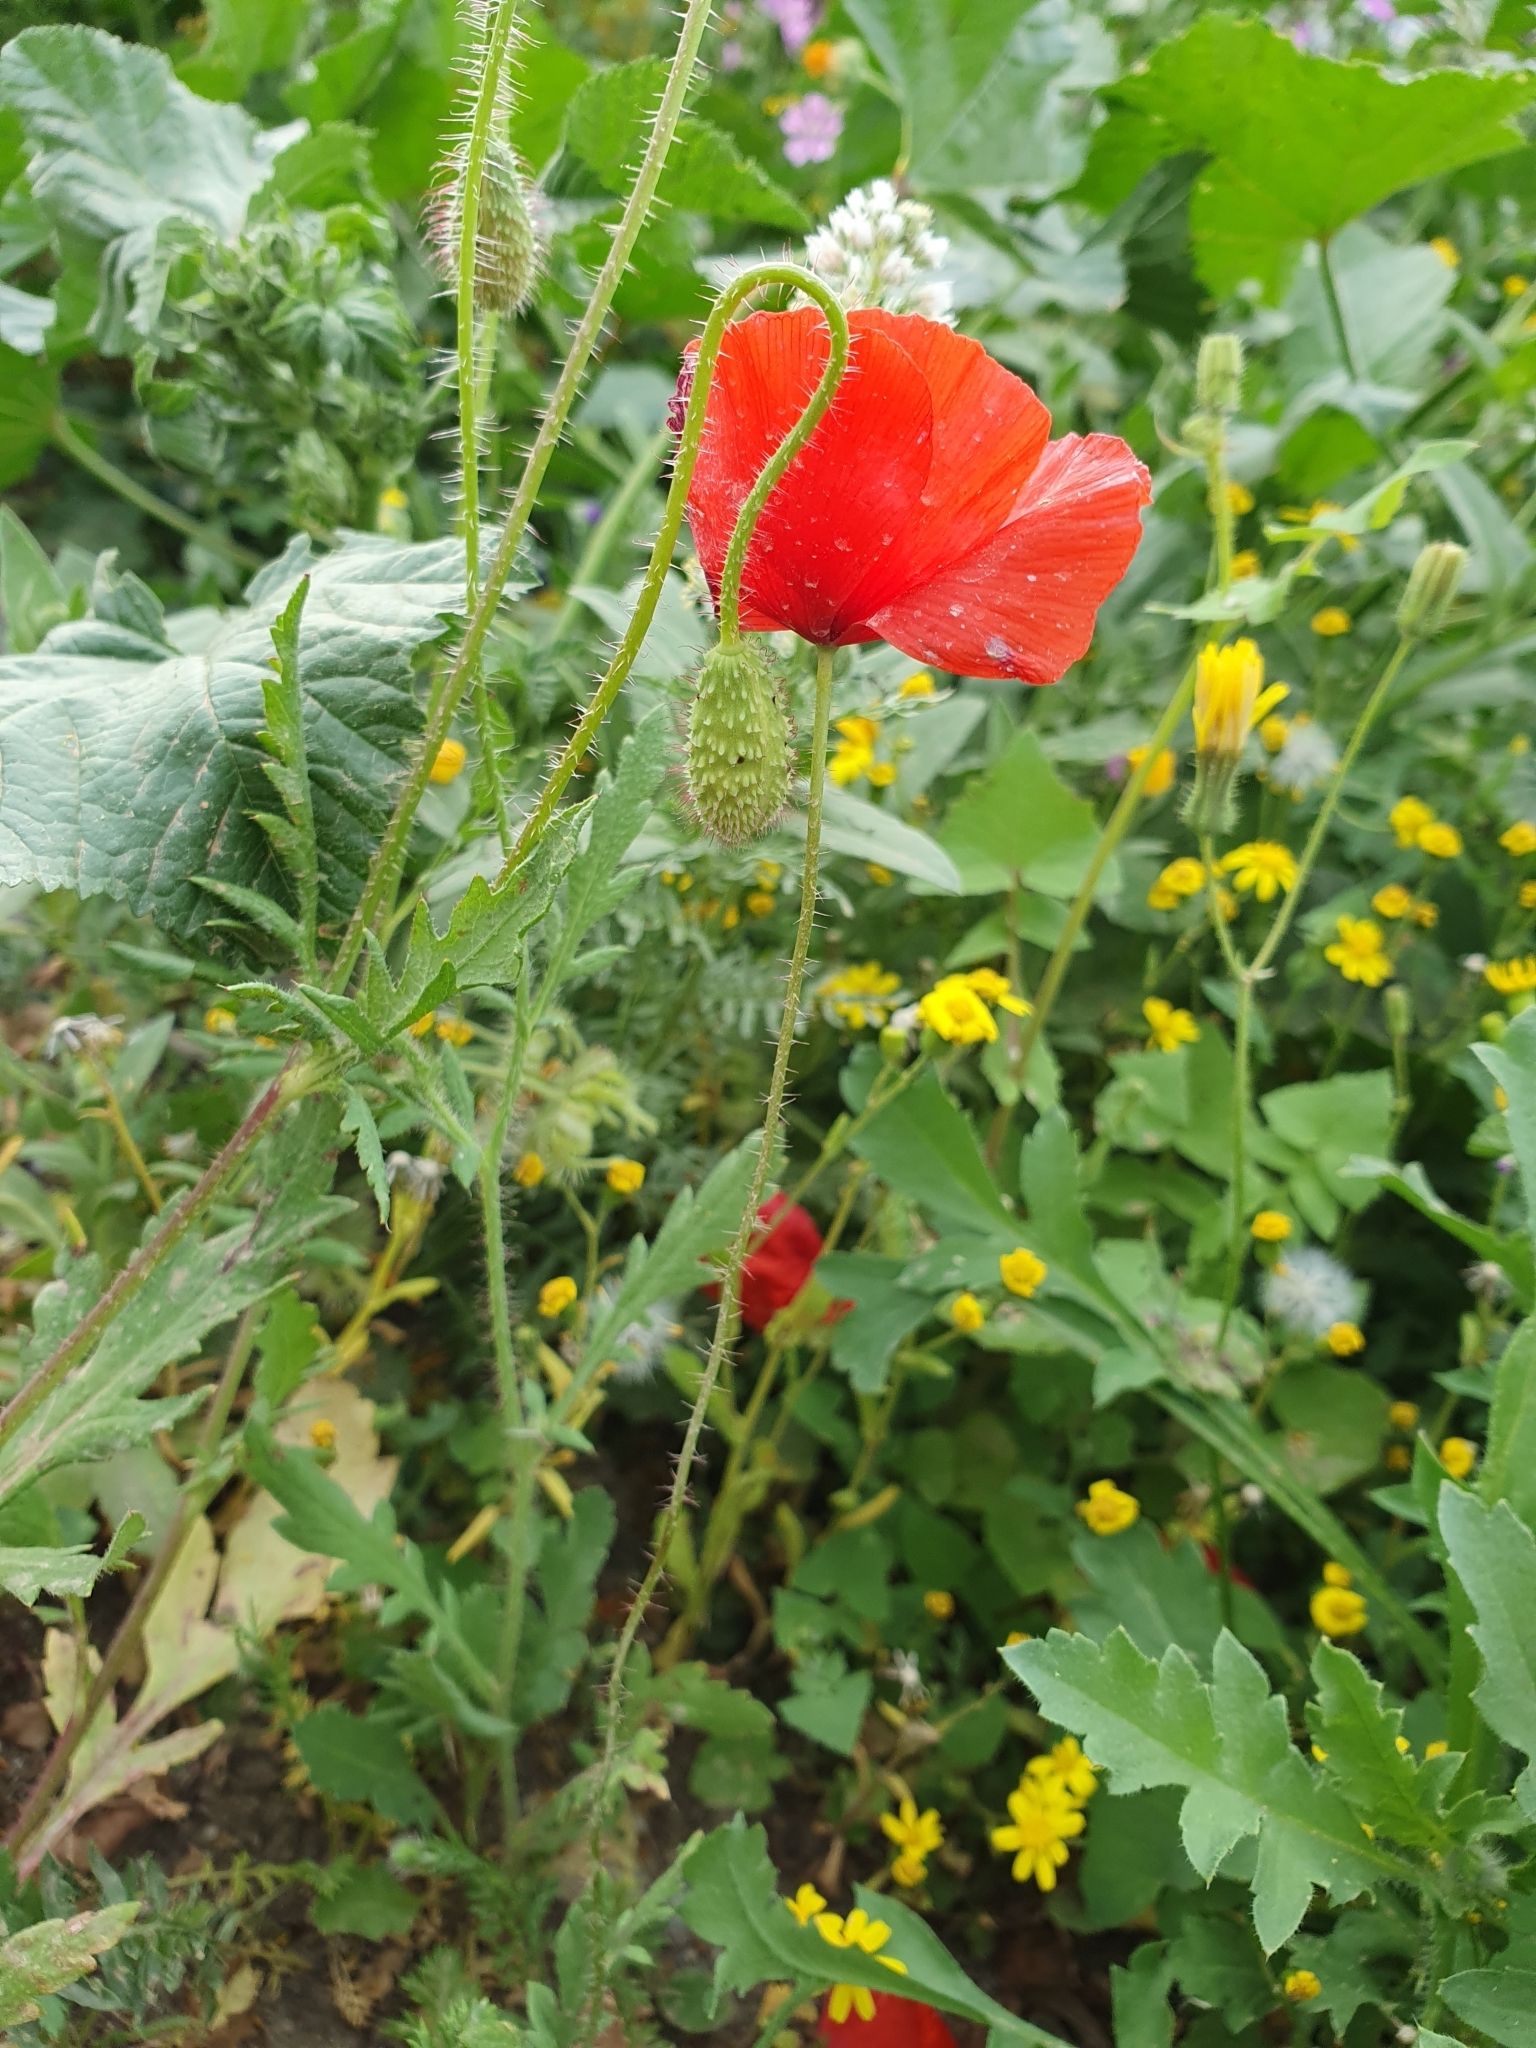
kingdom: Plantae
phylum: Tracheophyta
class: Magnoliopsida
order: Ranunculales
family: Papaveraceae
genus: Papaver
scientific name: Papaver rhoeas
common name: Corn poppy
